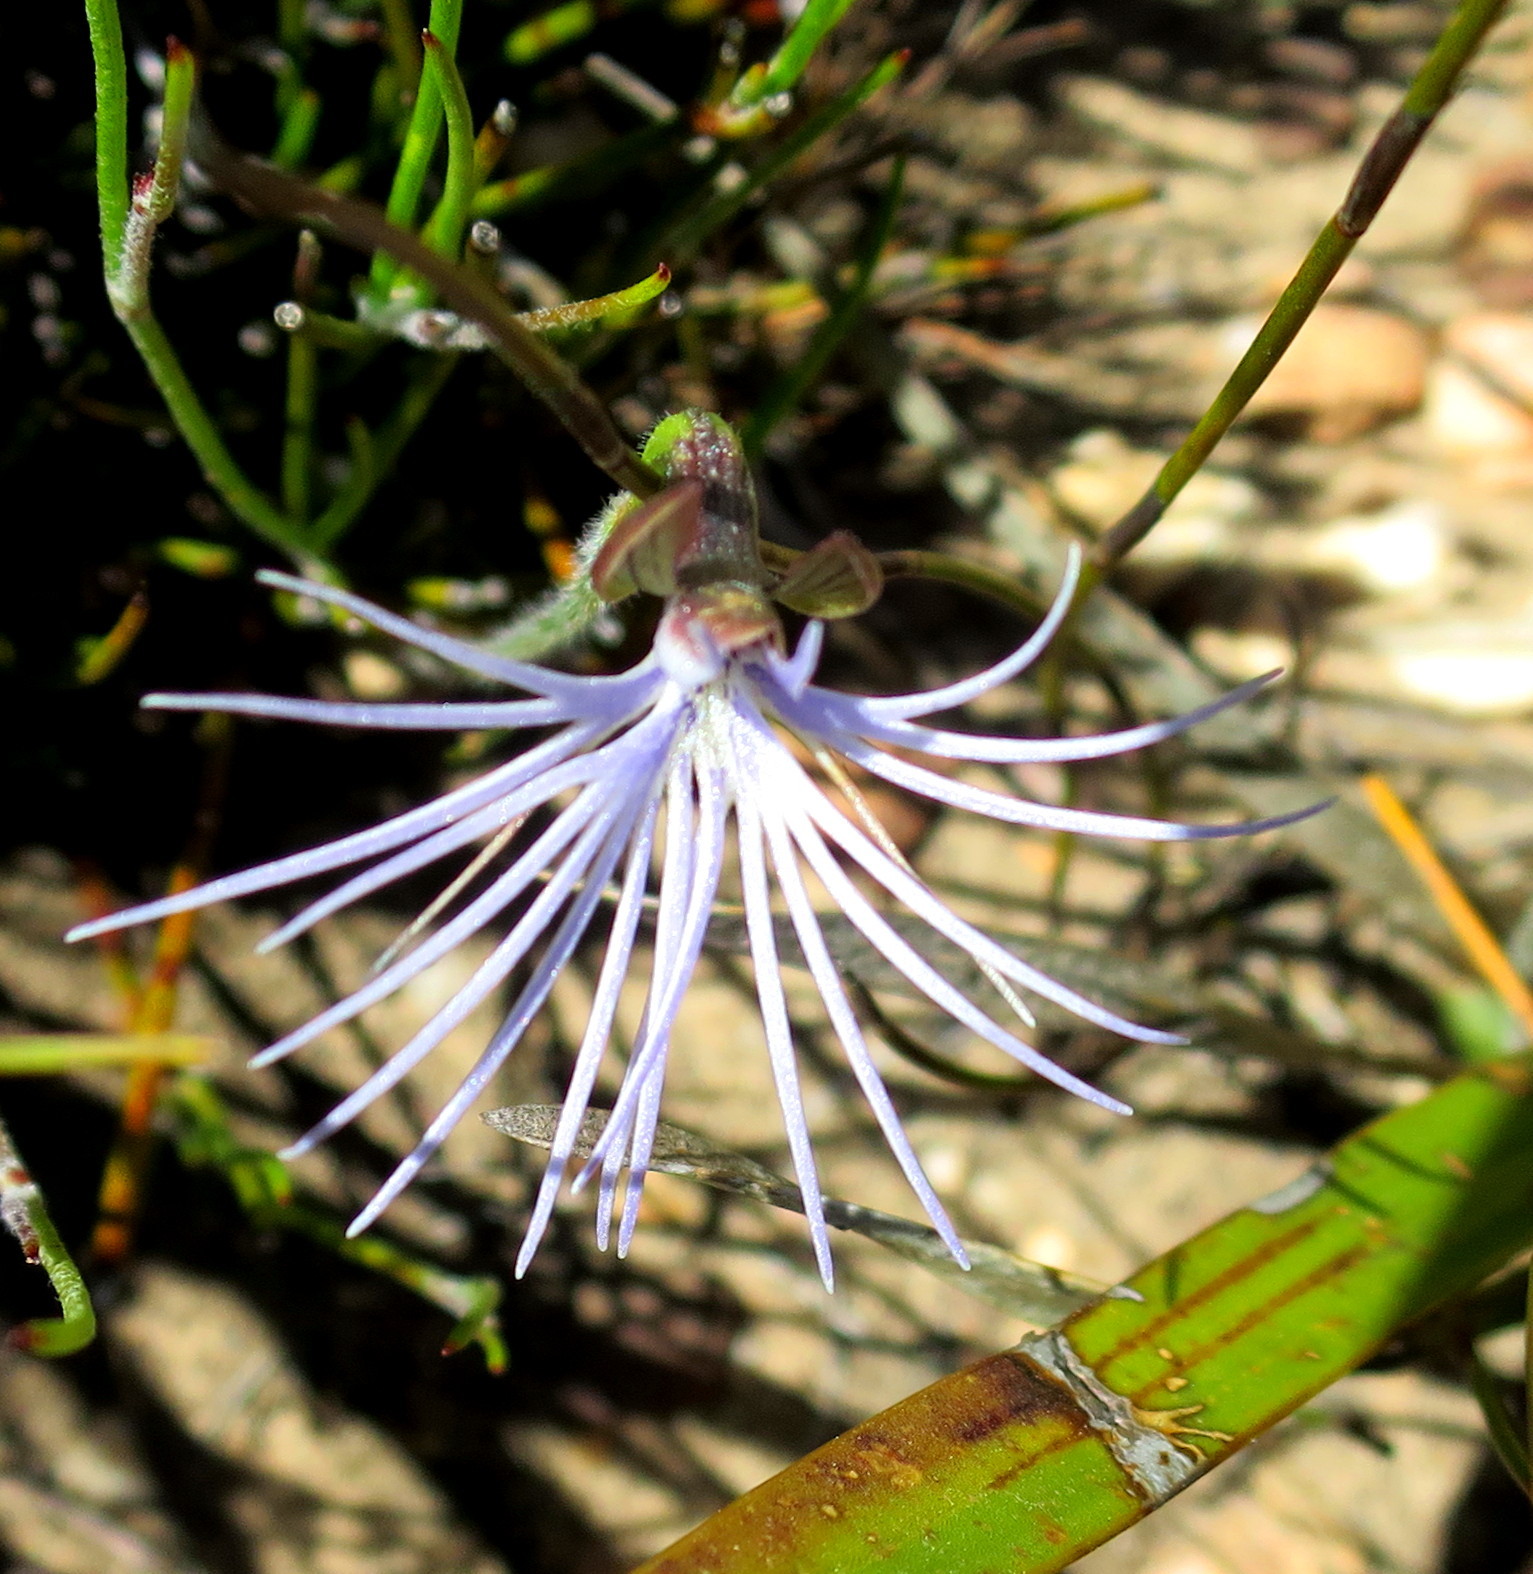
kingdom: Plantae
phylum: Tracheophyta
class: Liliopsida
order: Asparagales
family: Orchidaceae
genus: Holothrix
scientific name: Holothrix burmanniana
